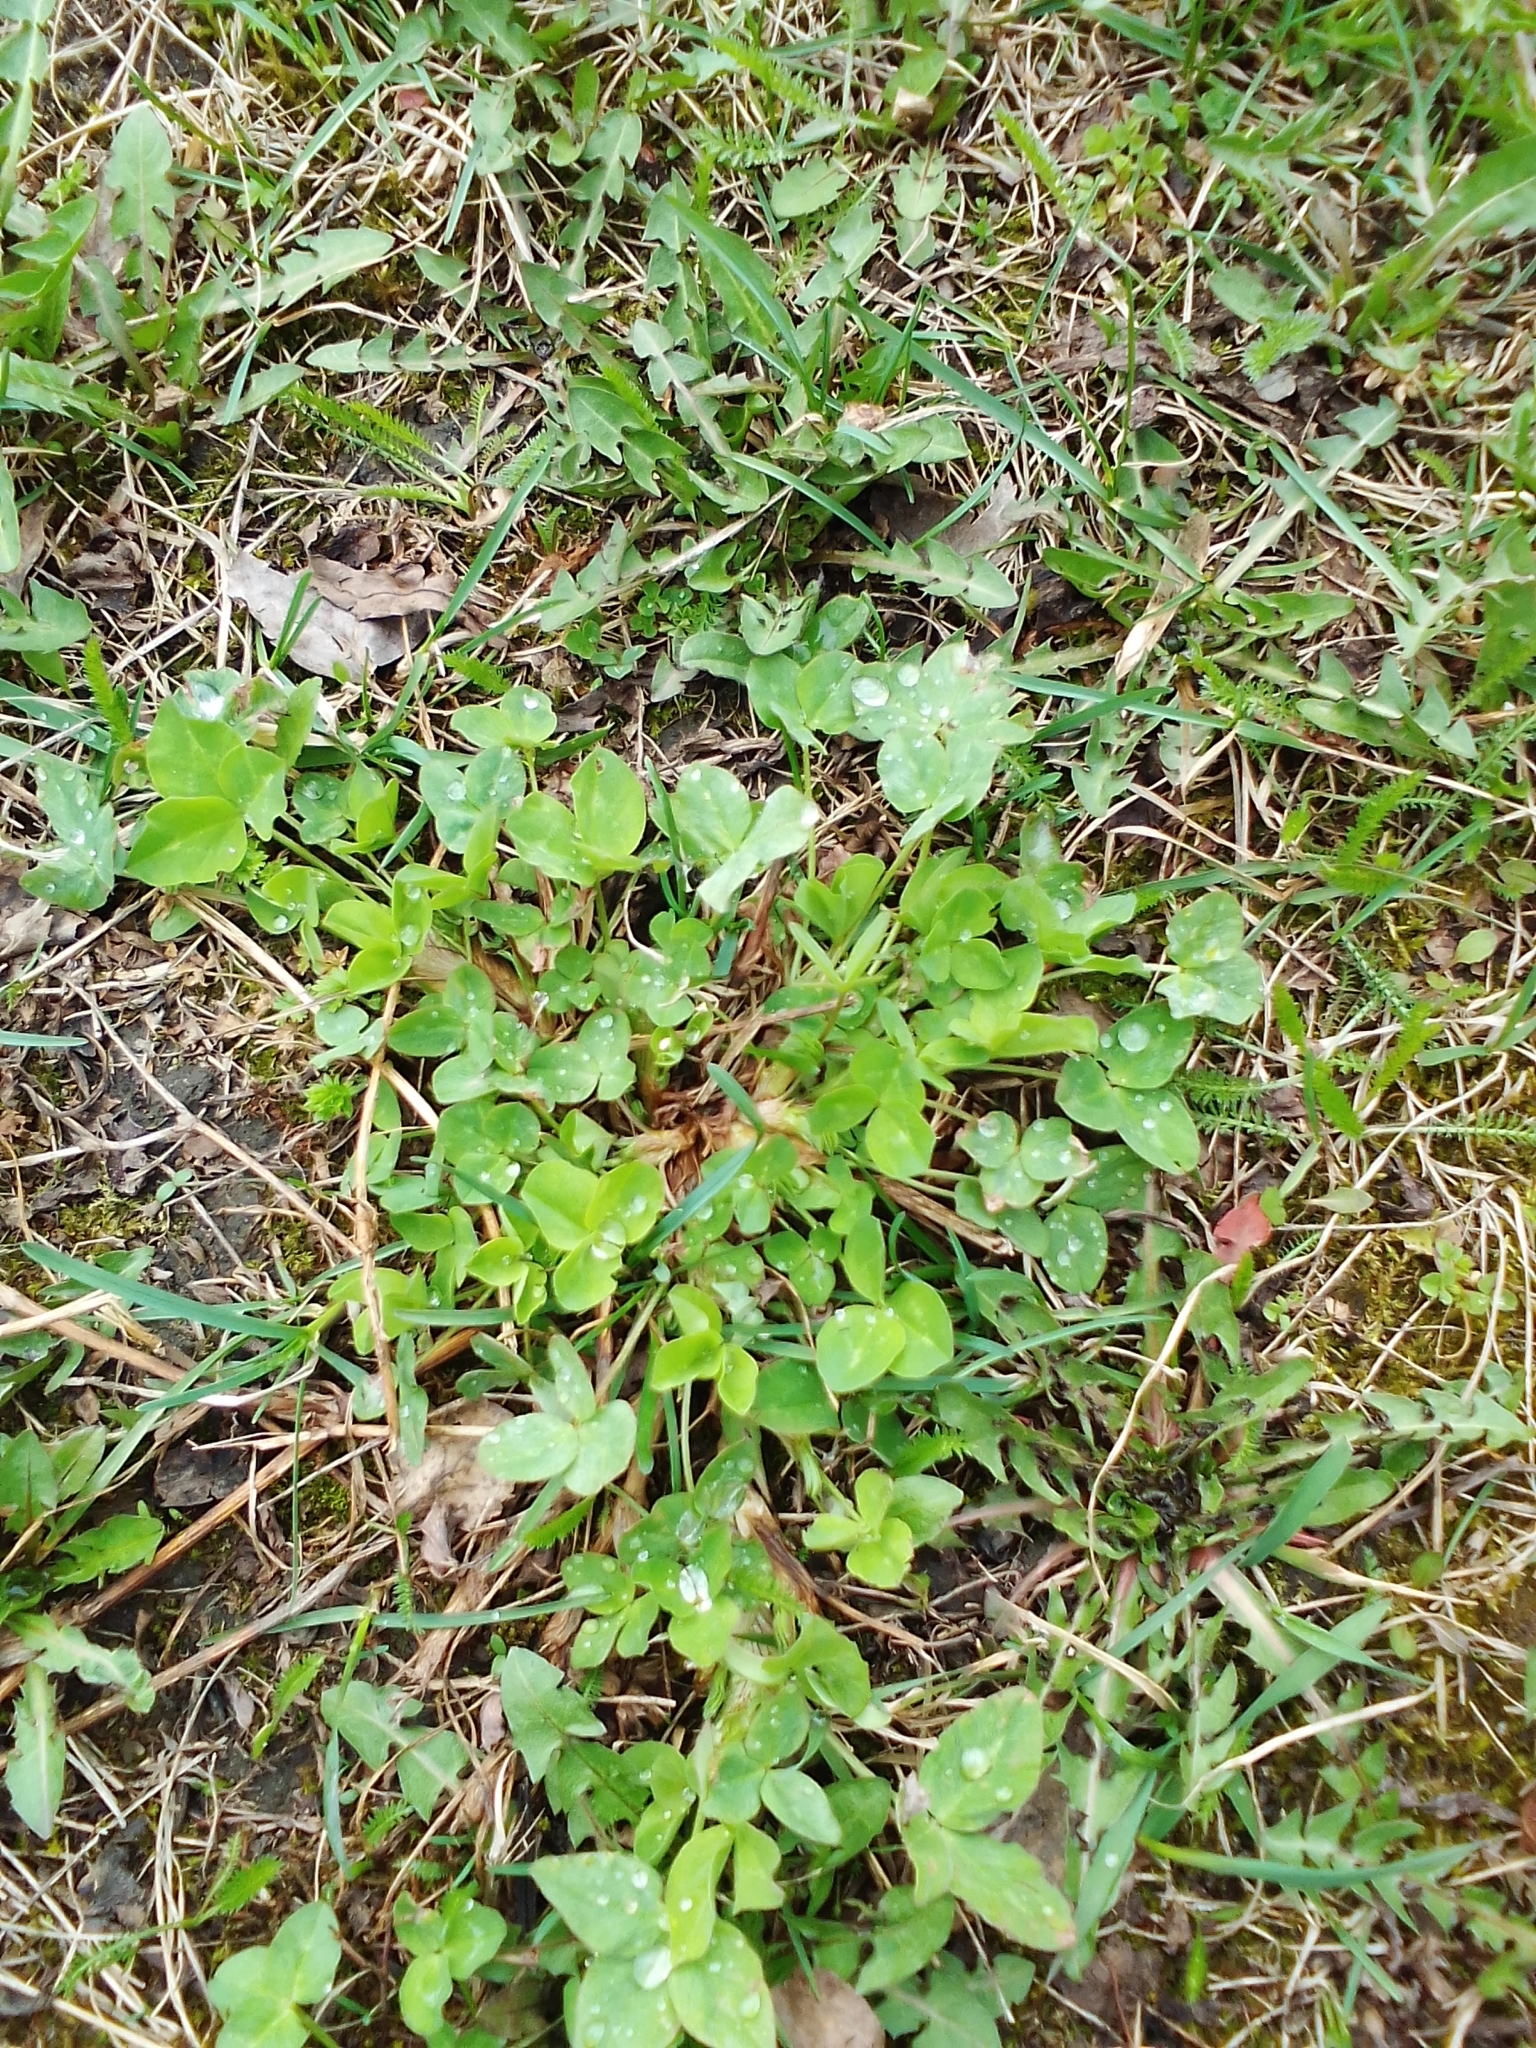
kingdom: Plantae
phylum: Tracheophyta
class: Magnoliopsida
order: Fabales
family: Fabaceae
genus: Trifolium
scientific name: Trifolium pratense
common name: Red clover
